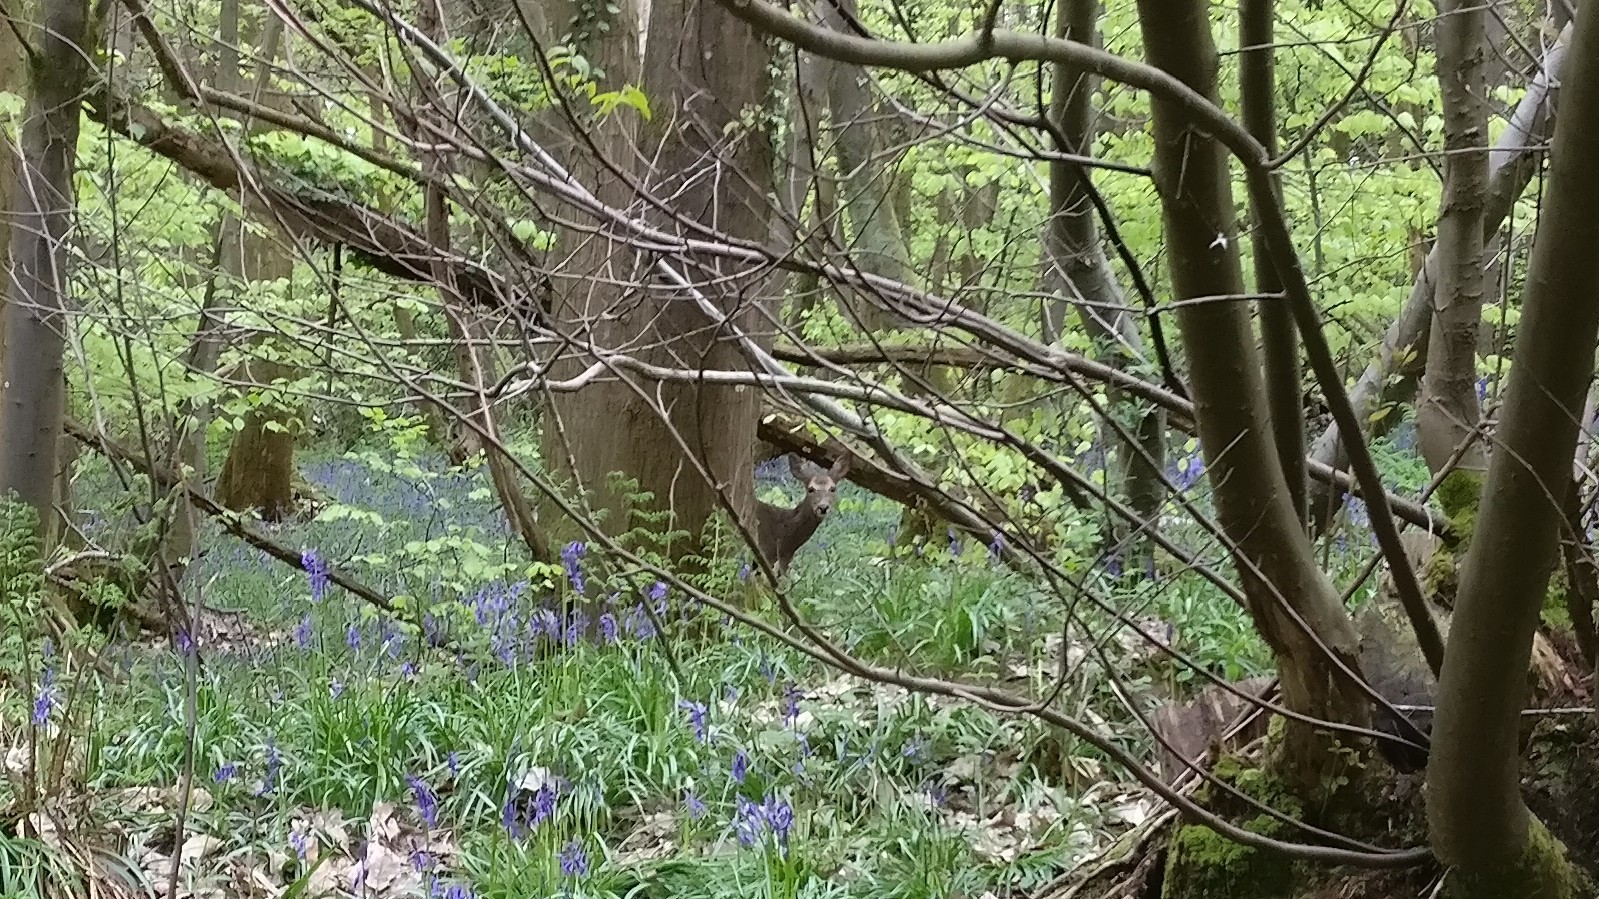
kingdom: Animalia
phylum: Chordata
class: Mammalia
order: Artiodactyla
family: Cervidae
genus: Capreolus
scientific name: Capreolus capreolus
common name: Western roe deer
